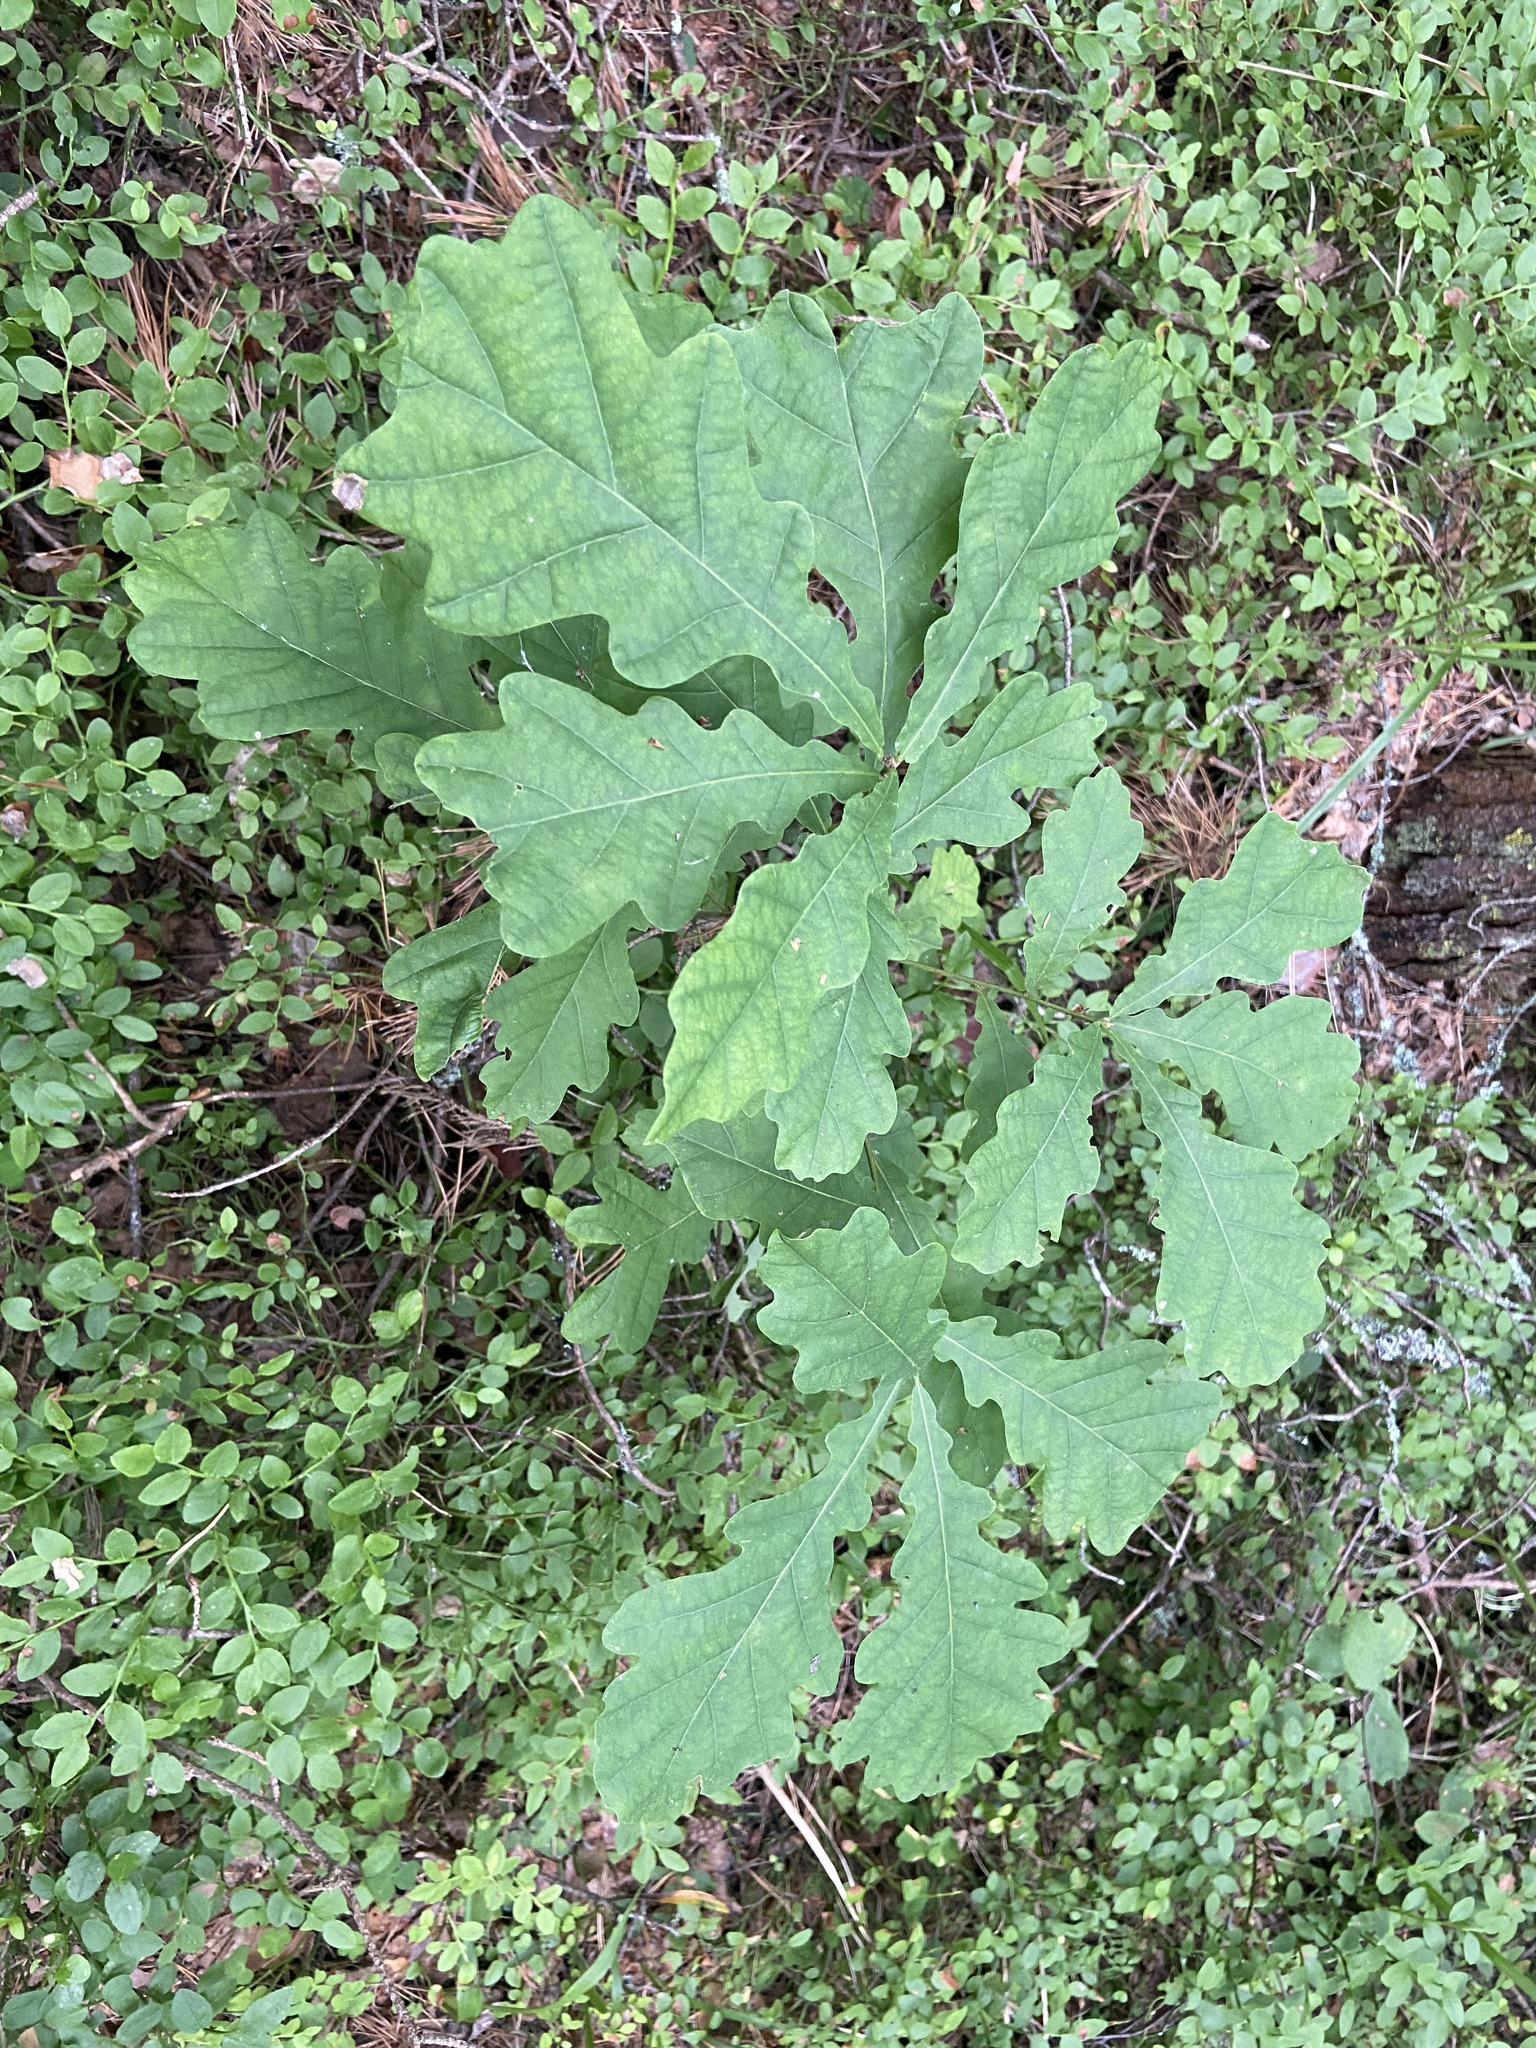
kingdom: Plantae
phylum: Tracheophyta
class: Magnoliopsida
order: Fagales
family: Fagaceae
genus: Quercus
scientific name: Quercus robur
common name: Pedunculate oak
